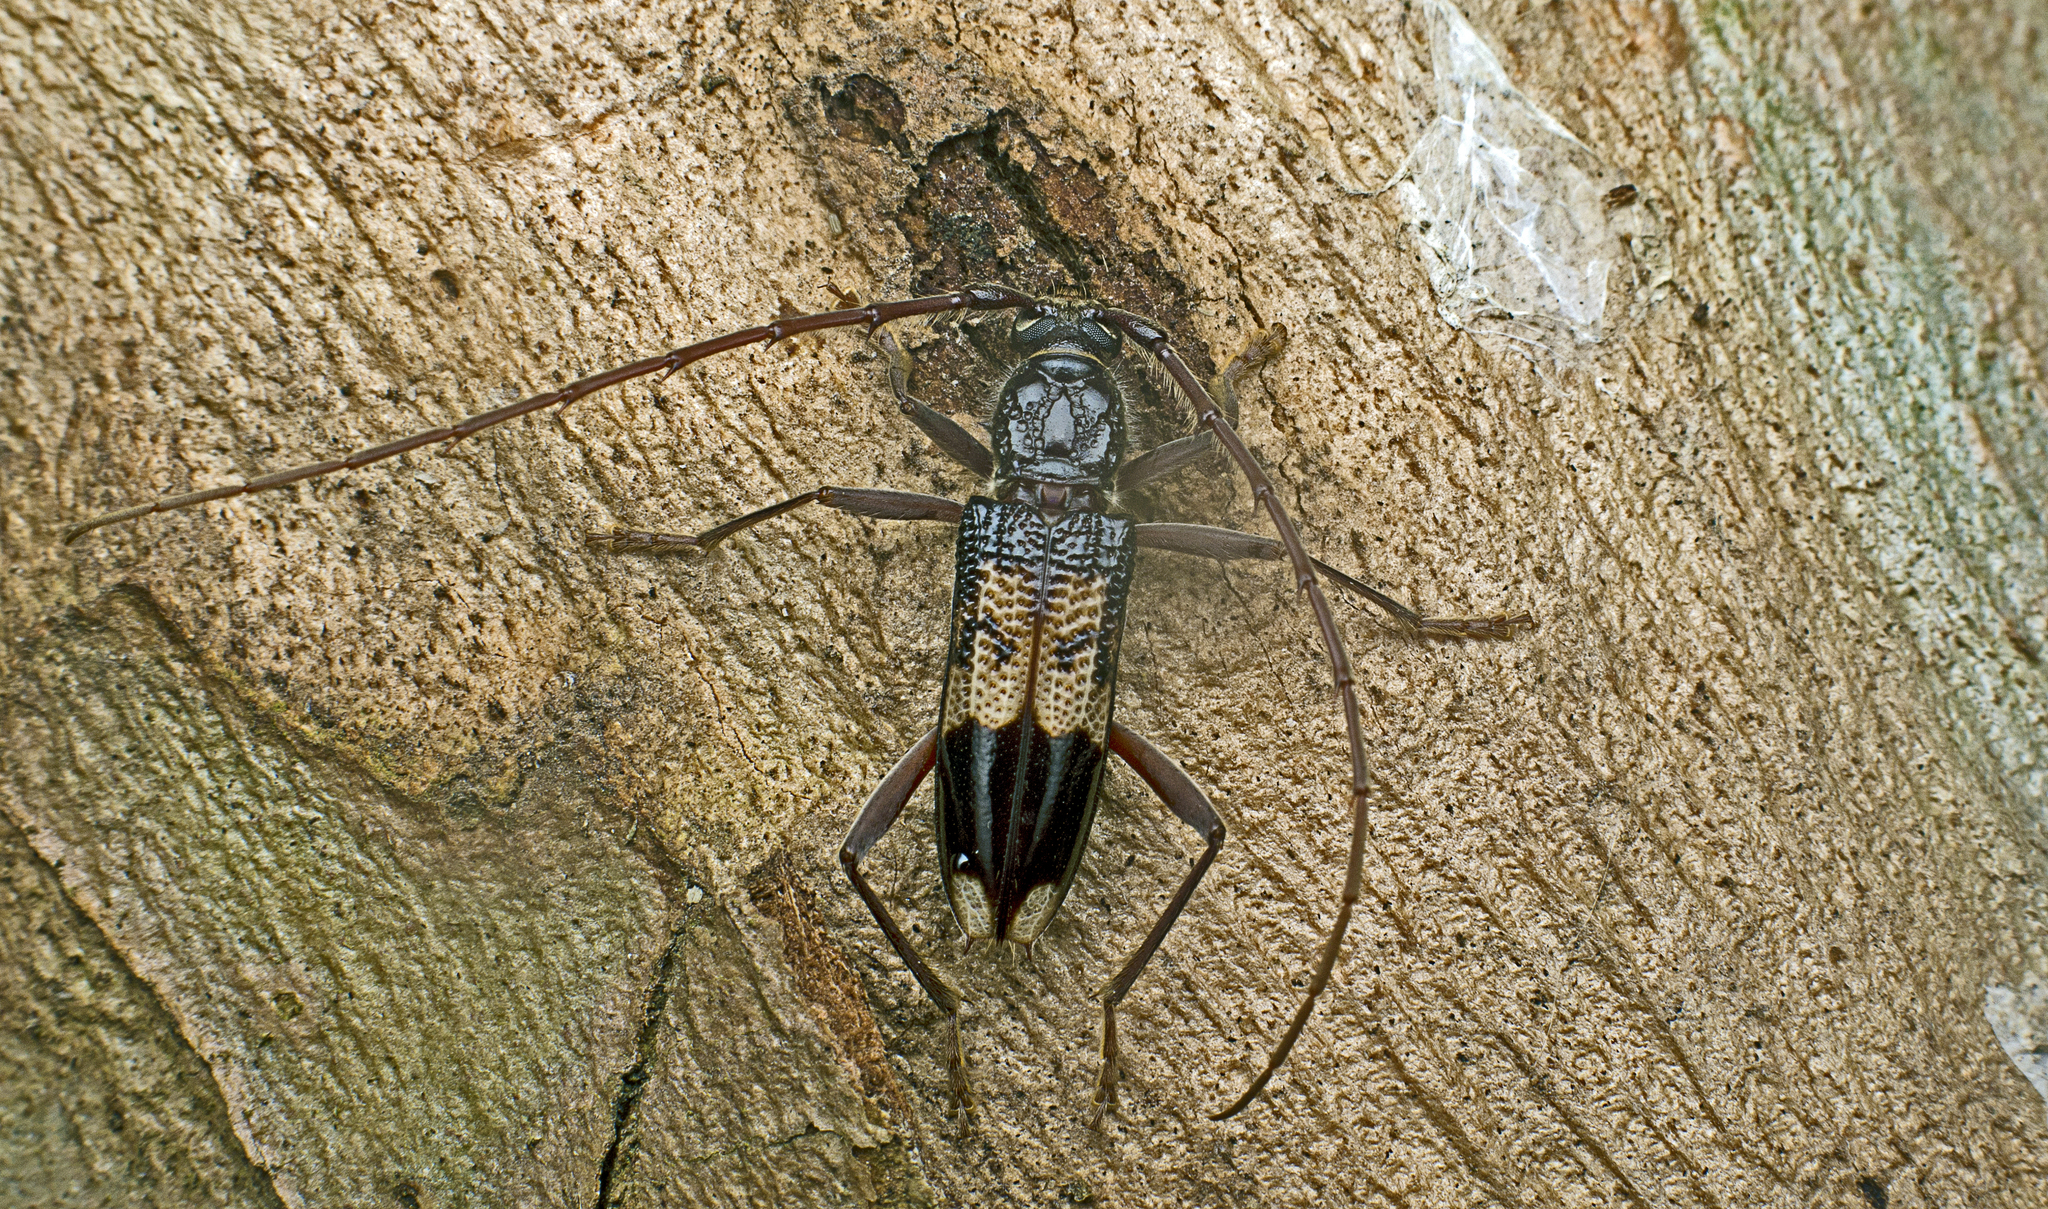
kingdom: Animalia
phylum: Arthropoda
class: Insecta
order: Coleoptera
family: Cerambycidae
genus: Phoracantha
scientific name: Phoracantha recurva
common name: Eucalyptus longhorned borer
